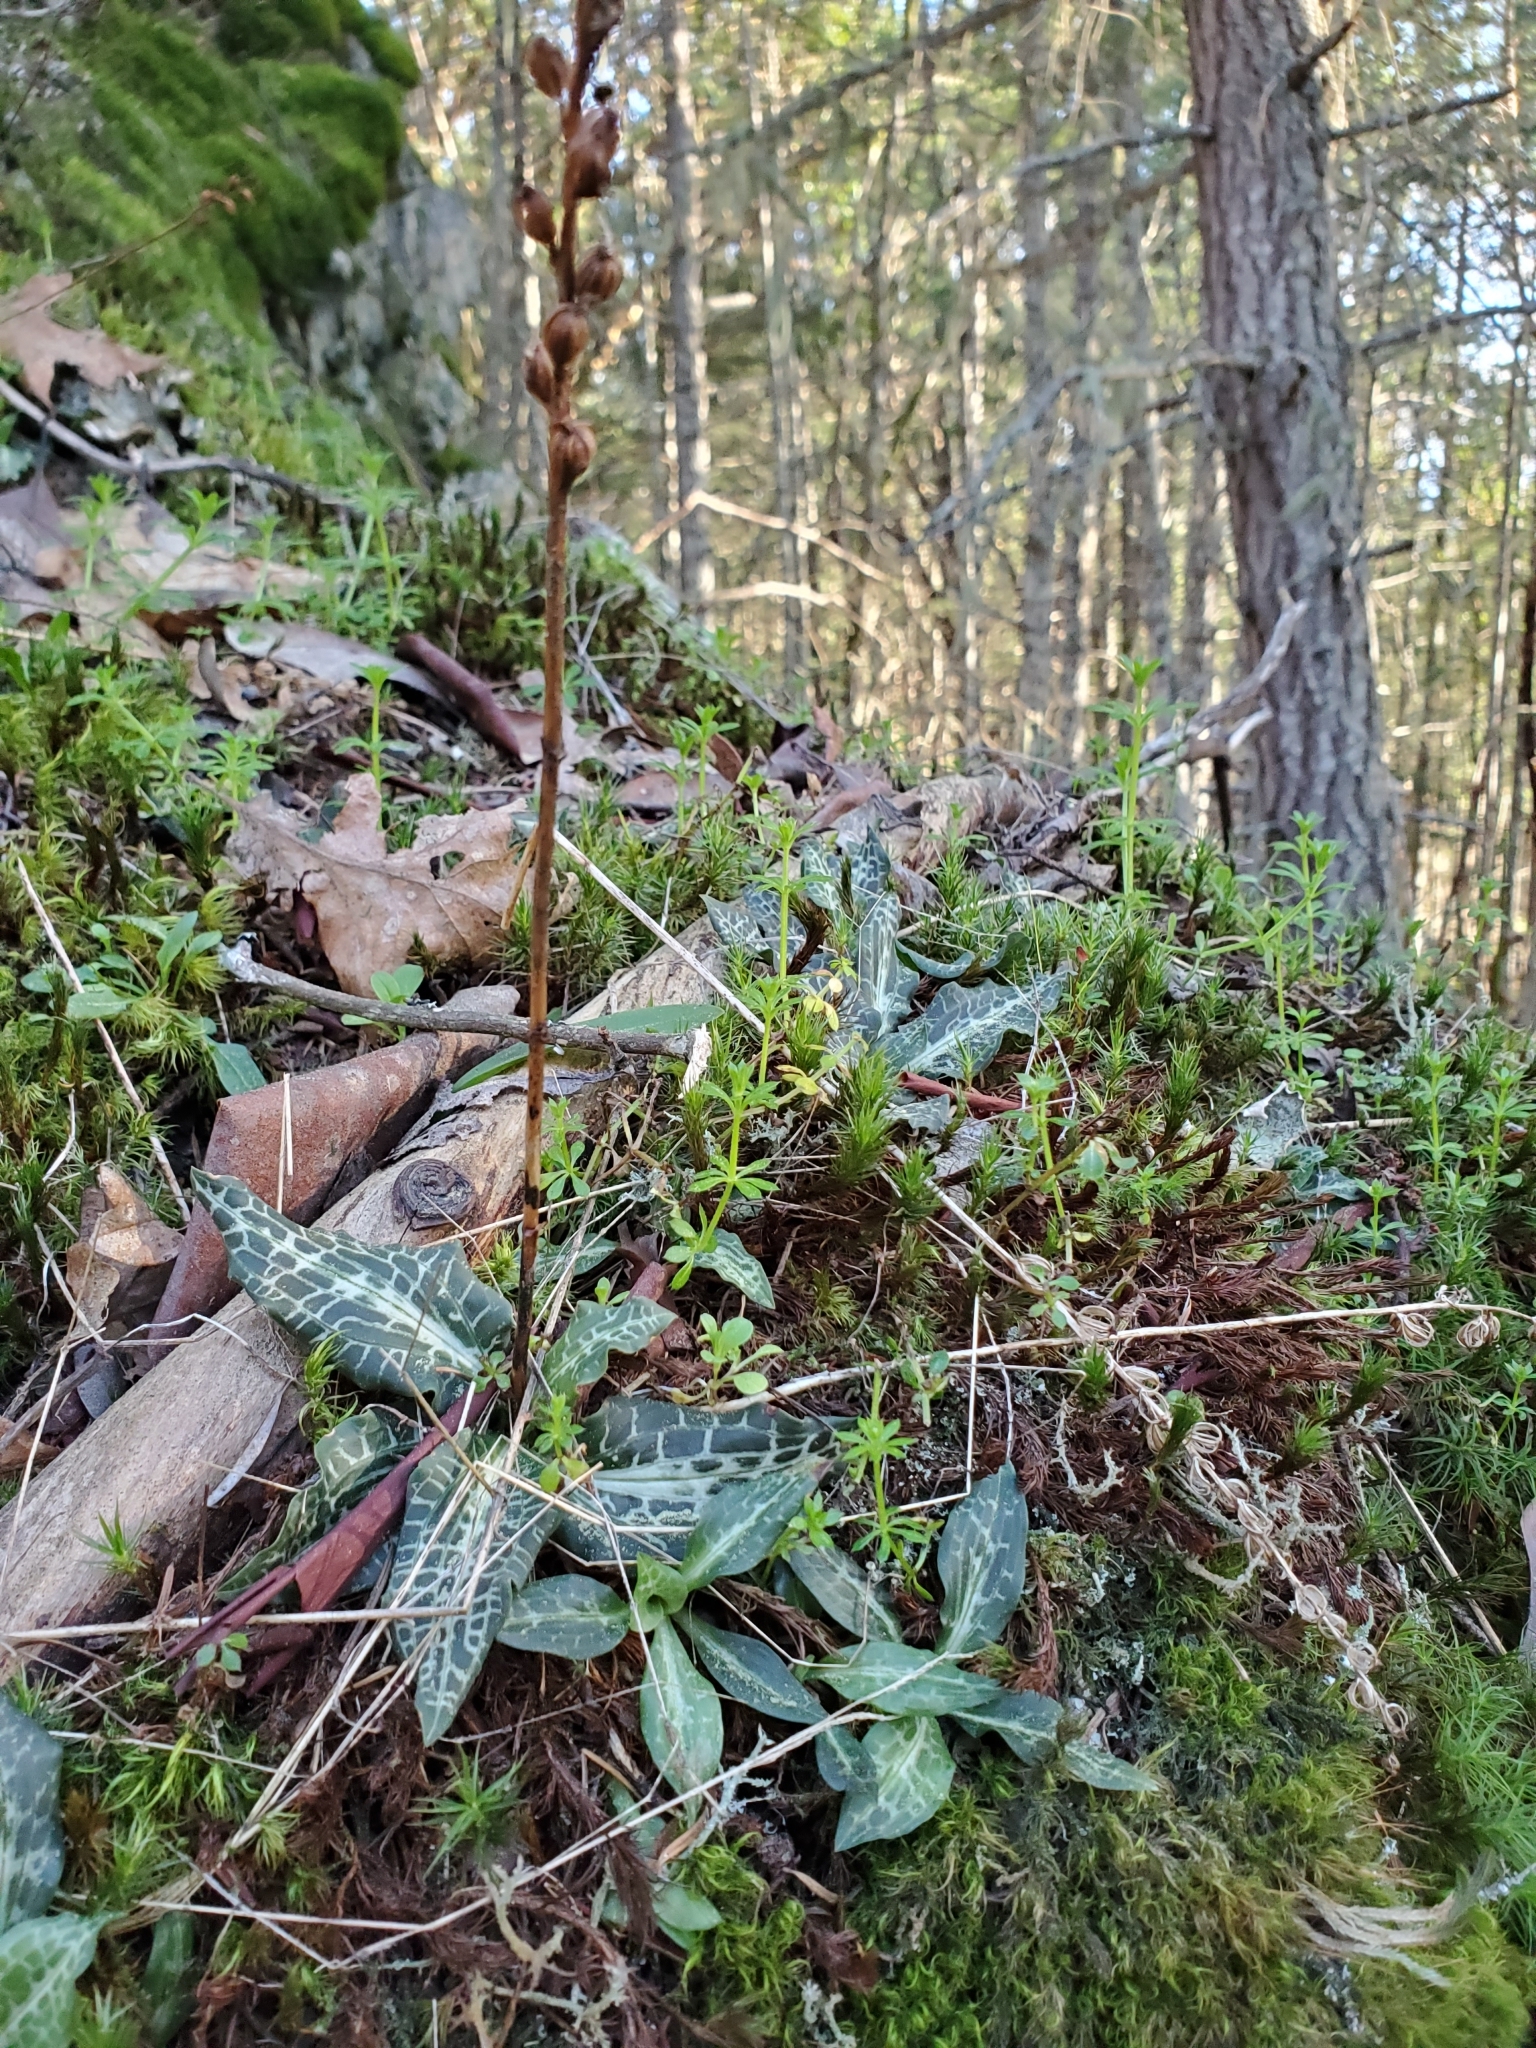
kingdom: Plantae
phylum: Tracheophyta
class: Liliopsida
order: Asparagales
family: Orchidaceae
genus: Goodyera
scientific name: Goodyera oblongifolia
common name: Giant rattlesnake-plantain
